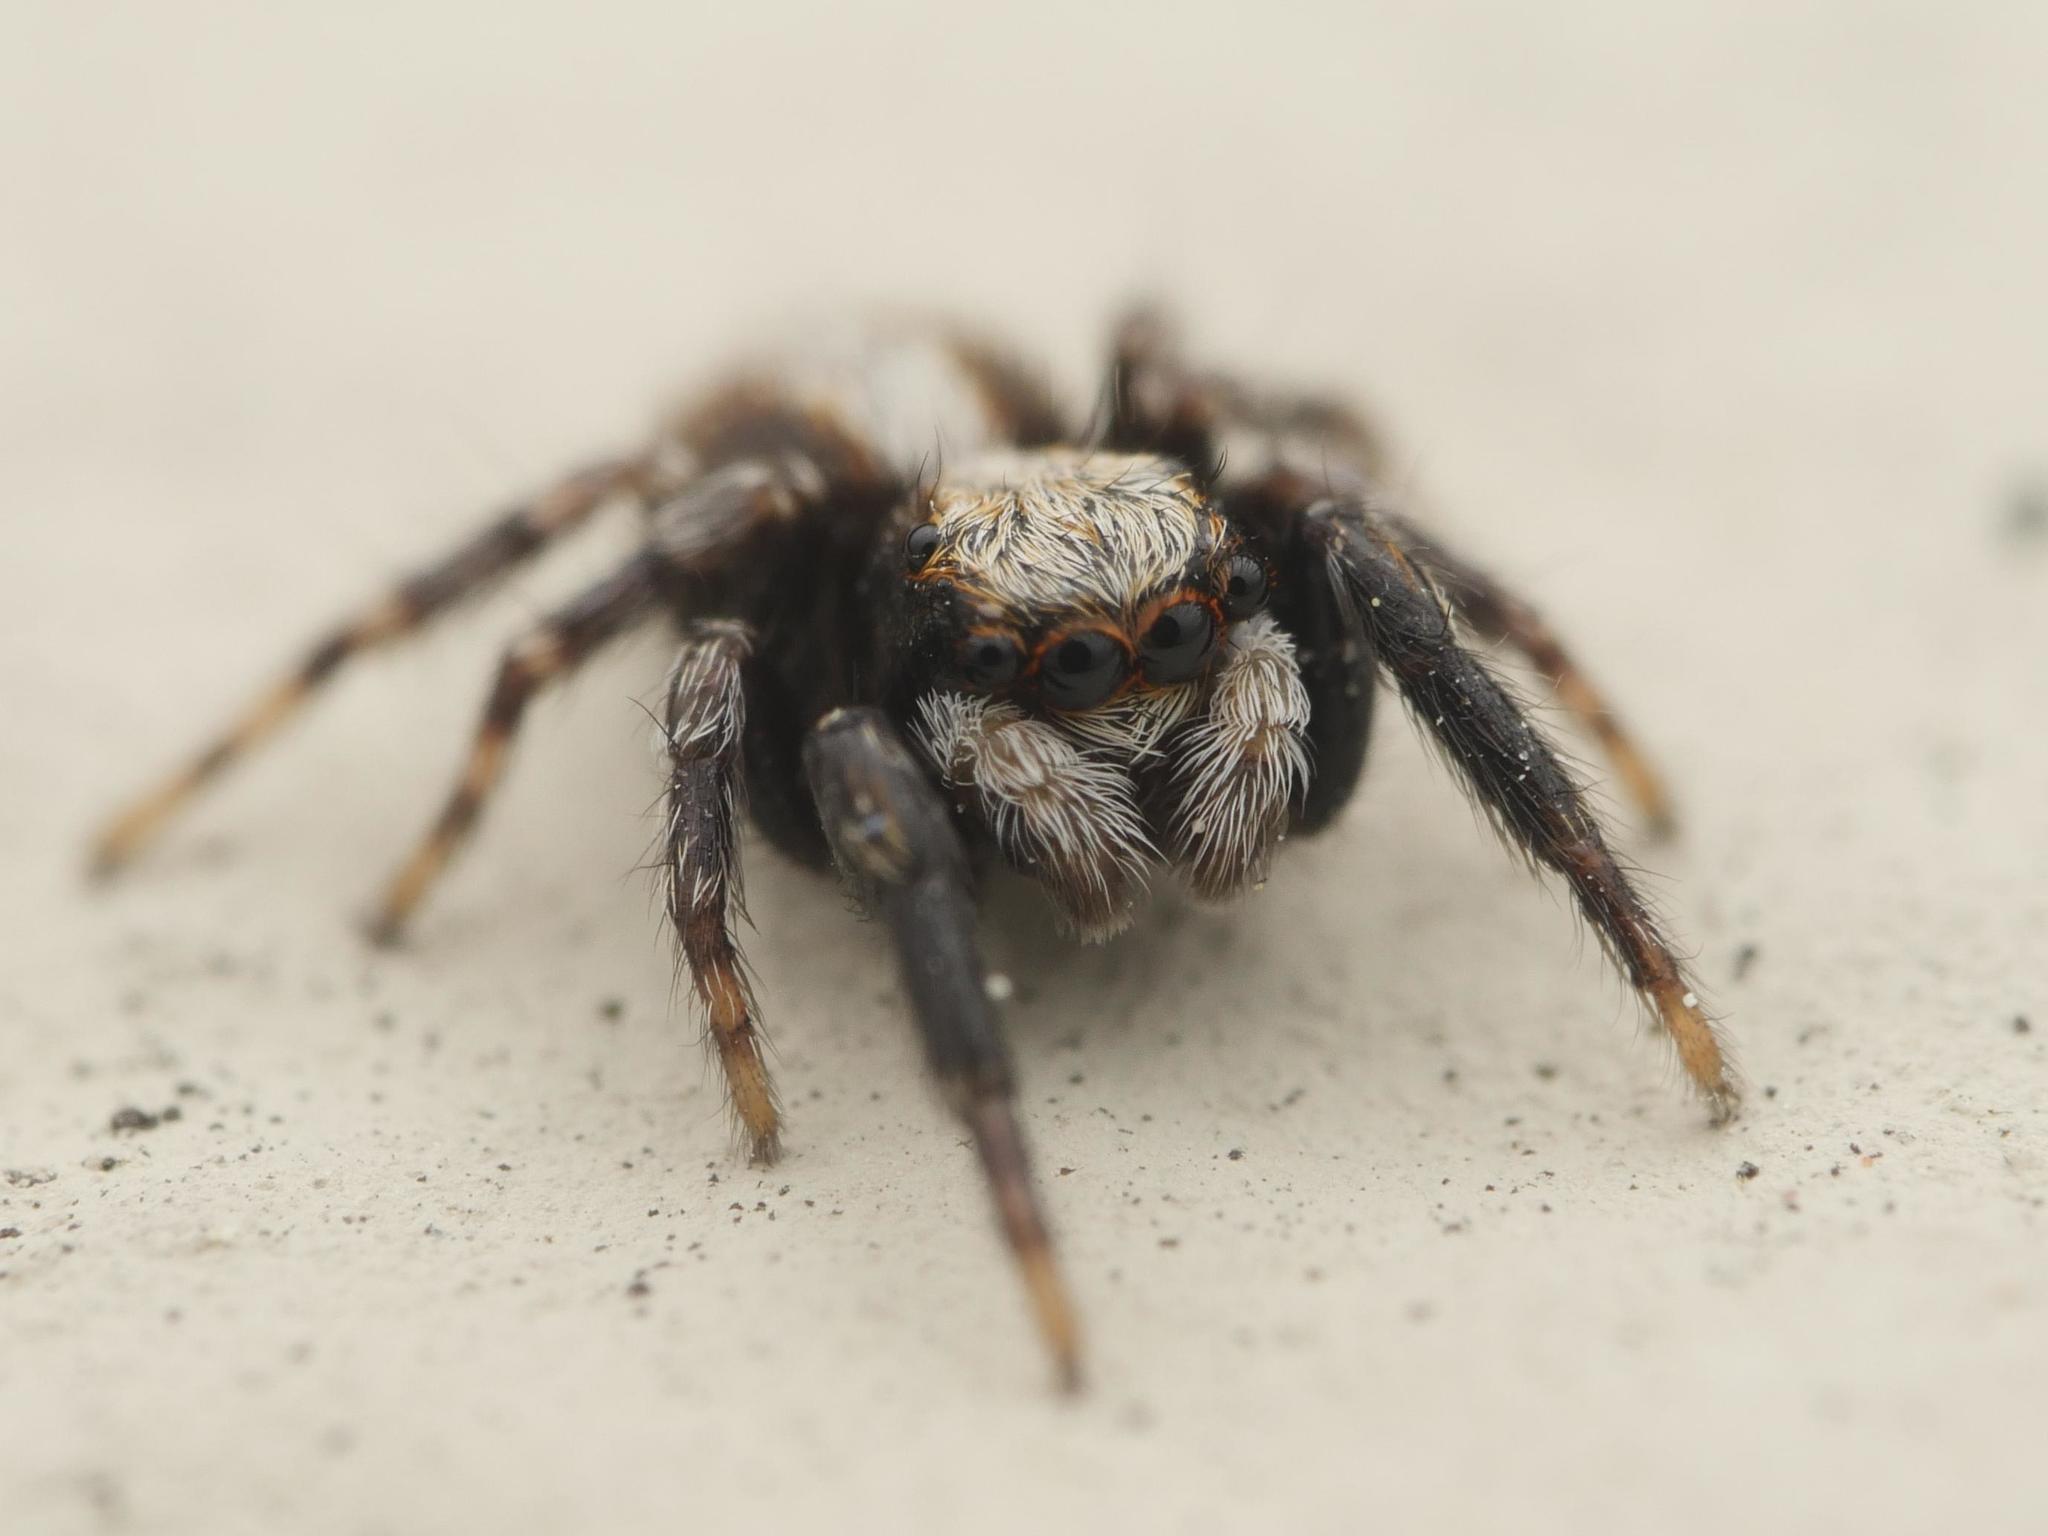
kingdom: Animalia
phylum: Arthropoda
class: Arachnida
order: Araneae
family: Salticidae
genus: Pseudeuophrys
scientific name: Pseudeuophrys lanigera
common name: Jumping spider
